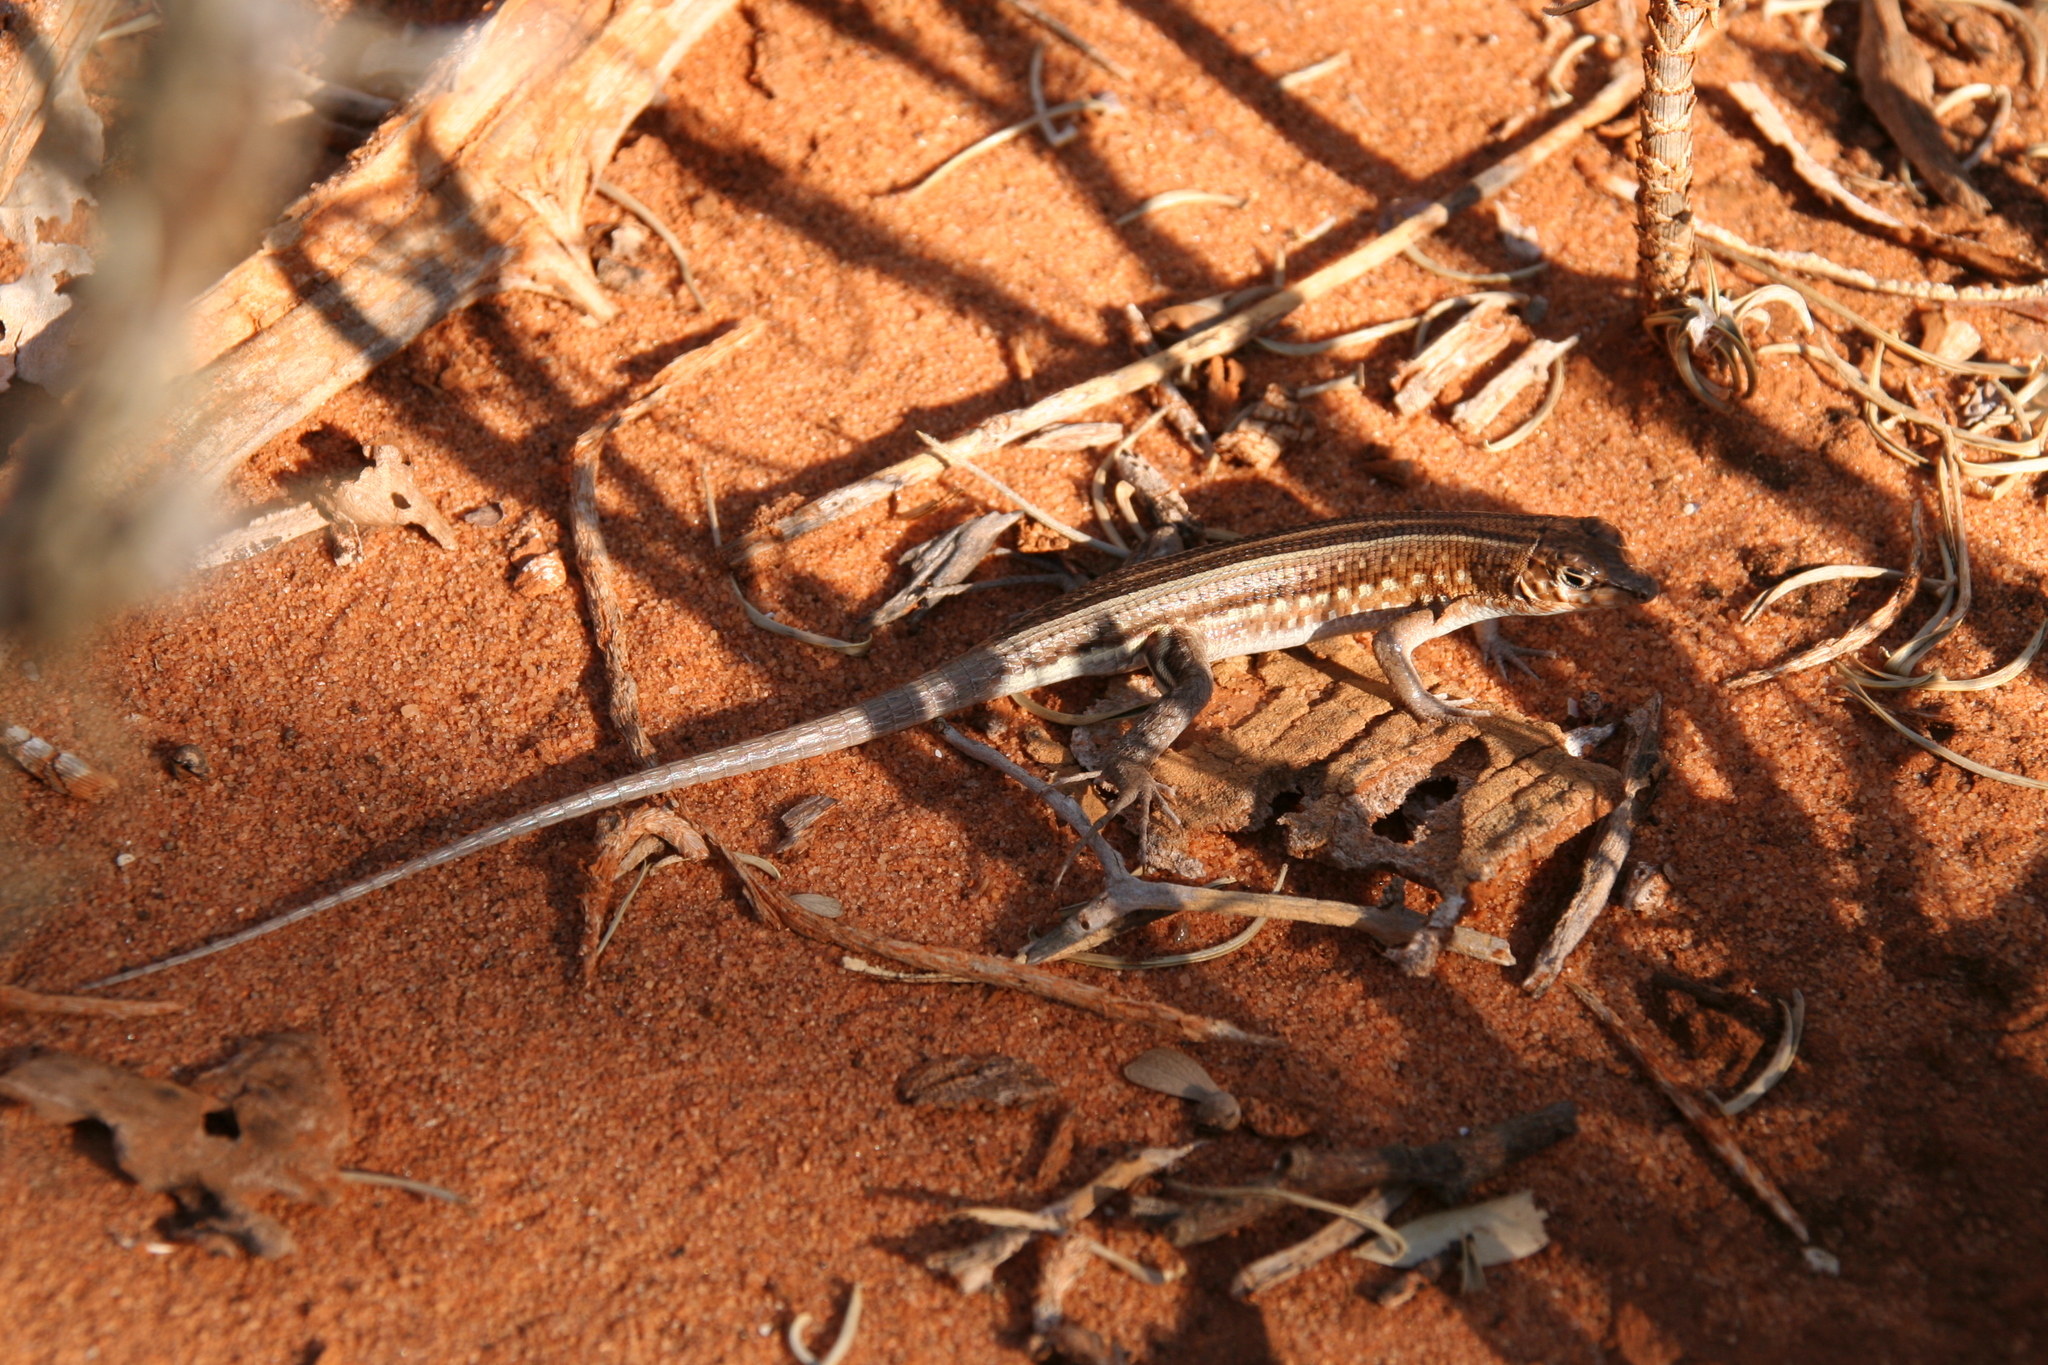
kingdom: Animalia
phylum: Chordata
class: Squamata
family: Gerrhosauridae
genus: Tracheloptychus
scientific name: Tracheloptychus madagascariensis
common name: Madagascar girdled lizard
